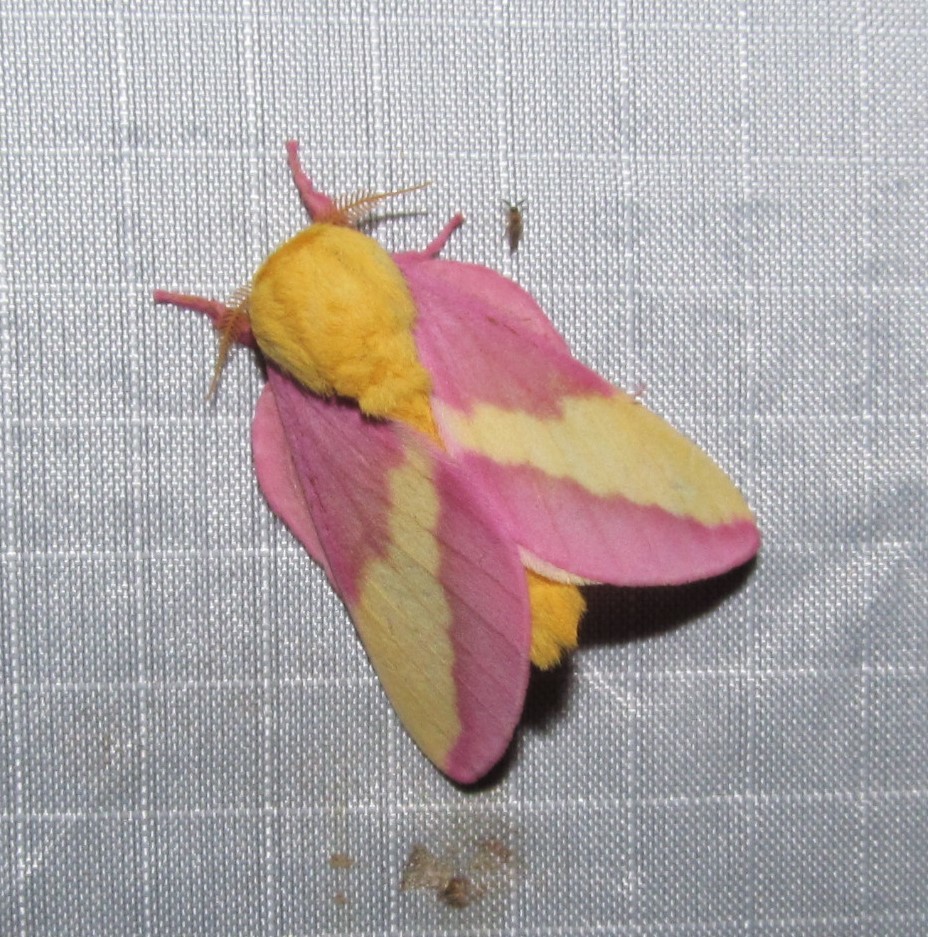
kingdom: Animalia
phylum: Arthropoda
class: Insecta
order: Lepidoptera
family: Saturniidae
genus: Dryocampa
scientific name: Dryocampa rubicunda
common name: Rosy maple moth
